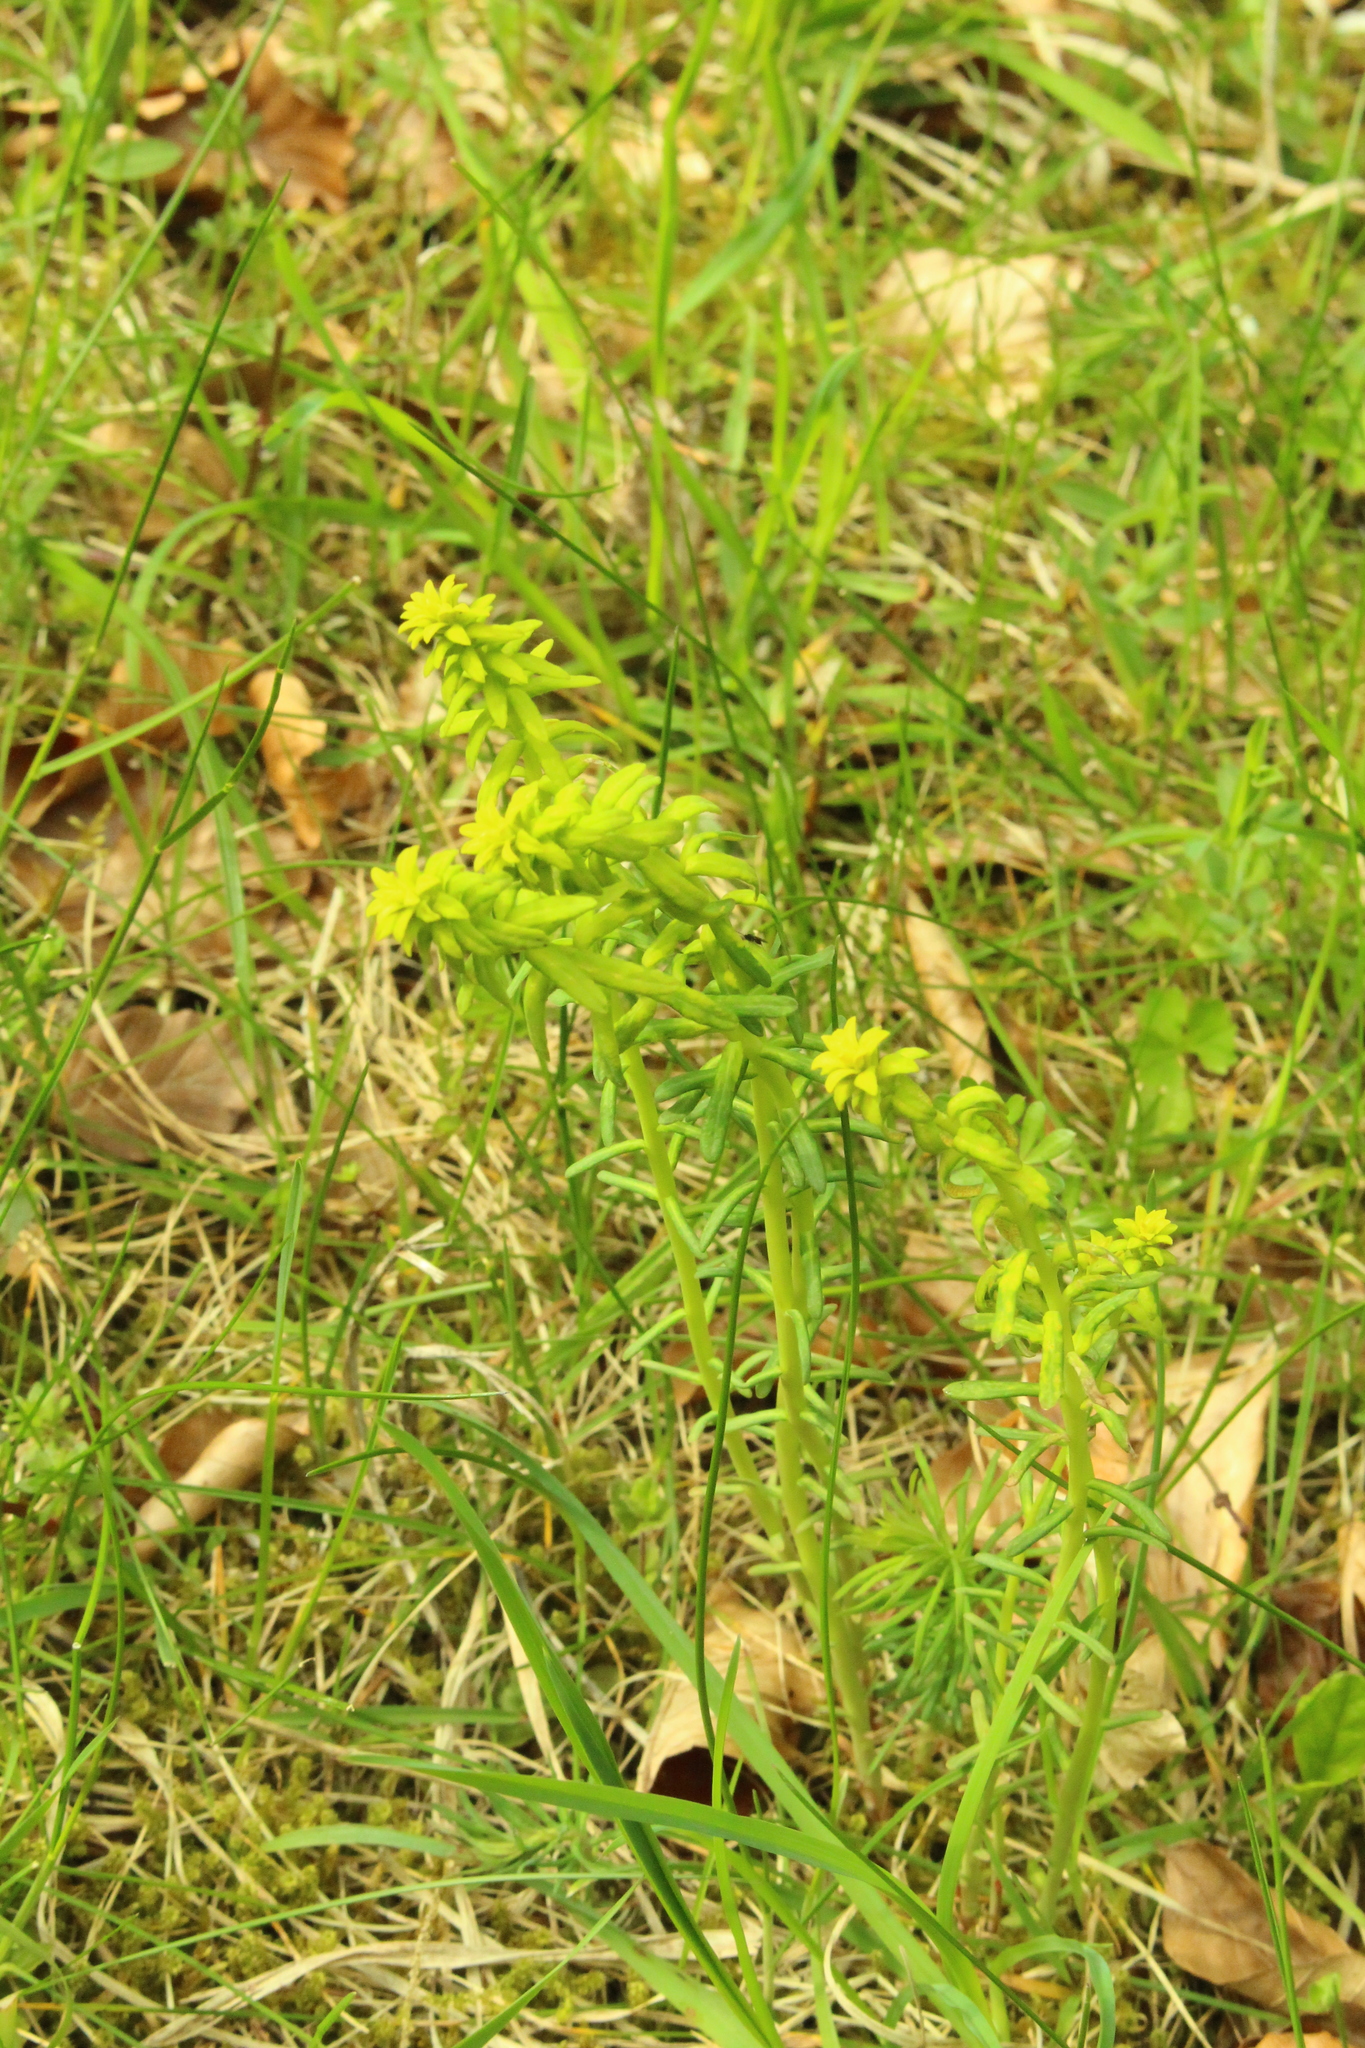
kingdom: Plantae
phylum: Tracheophyta
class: Magnoliopsida
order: Malpighiales
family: Euphorbiaceae
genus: Euphorbia
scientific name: Euphorbia cyparissias
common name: Cypress spurge
